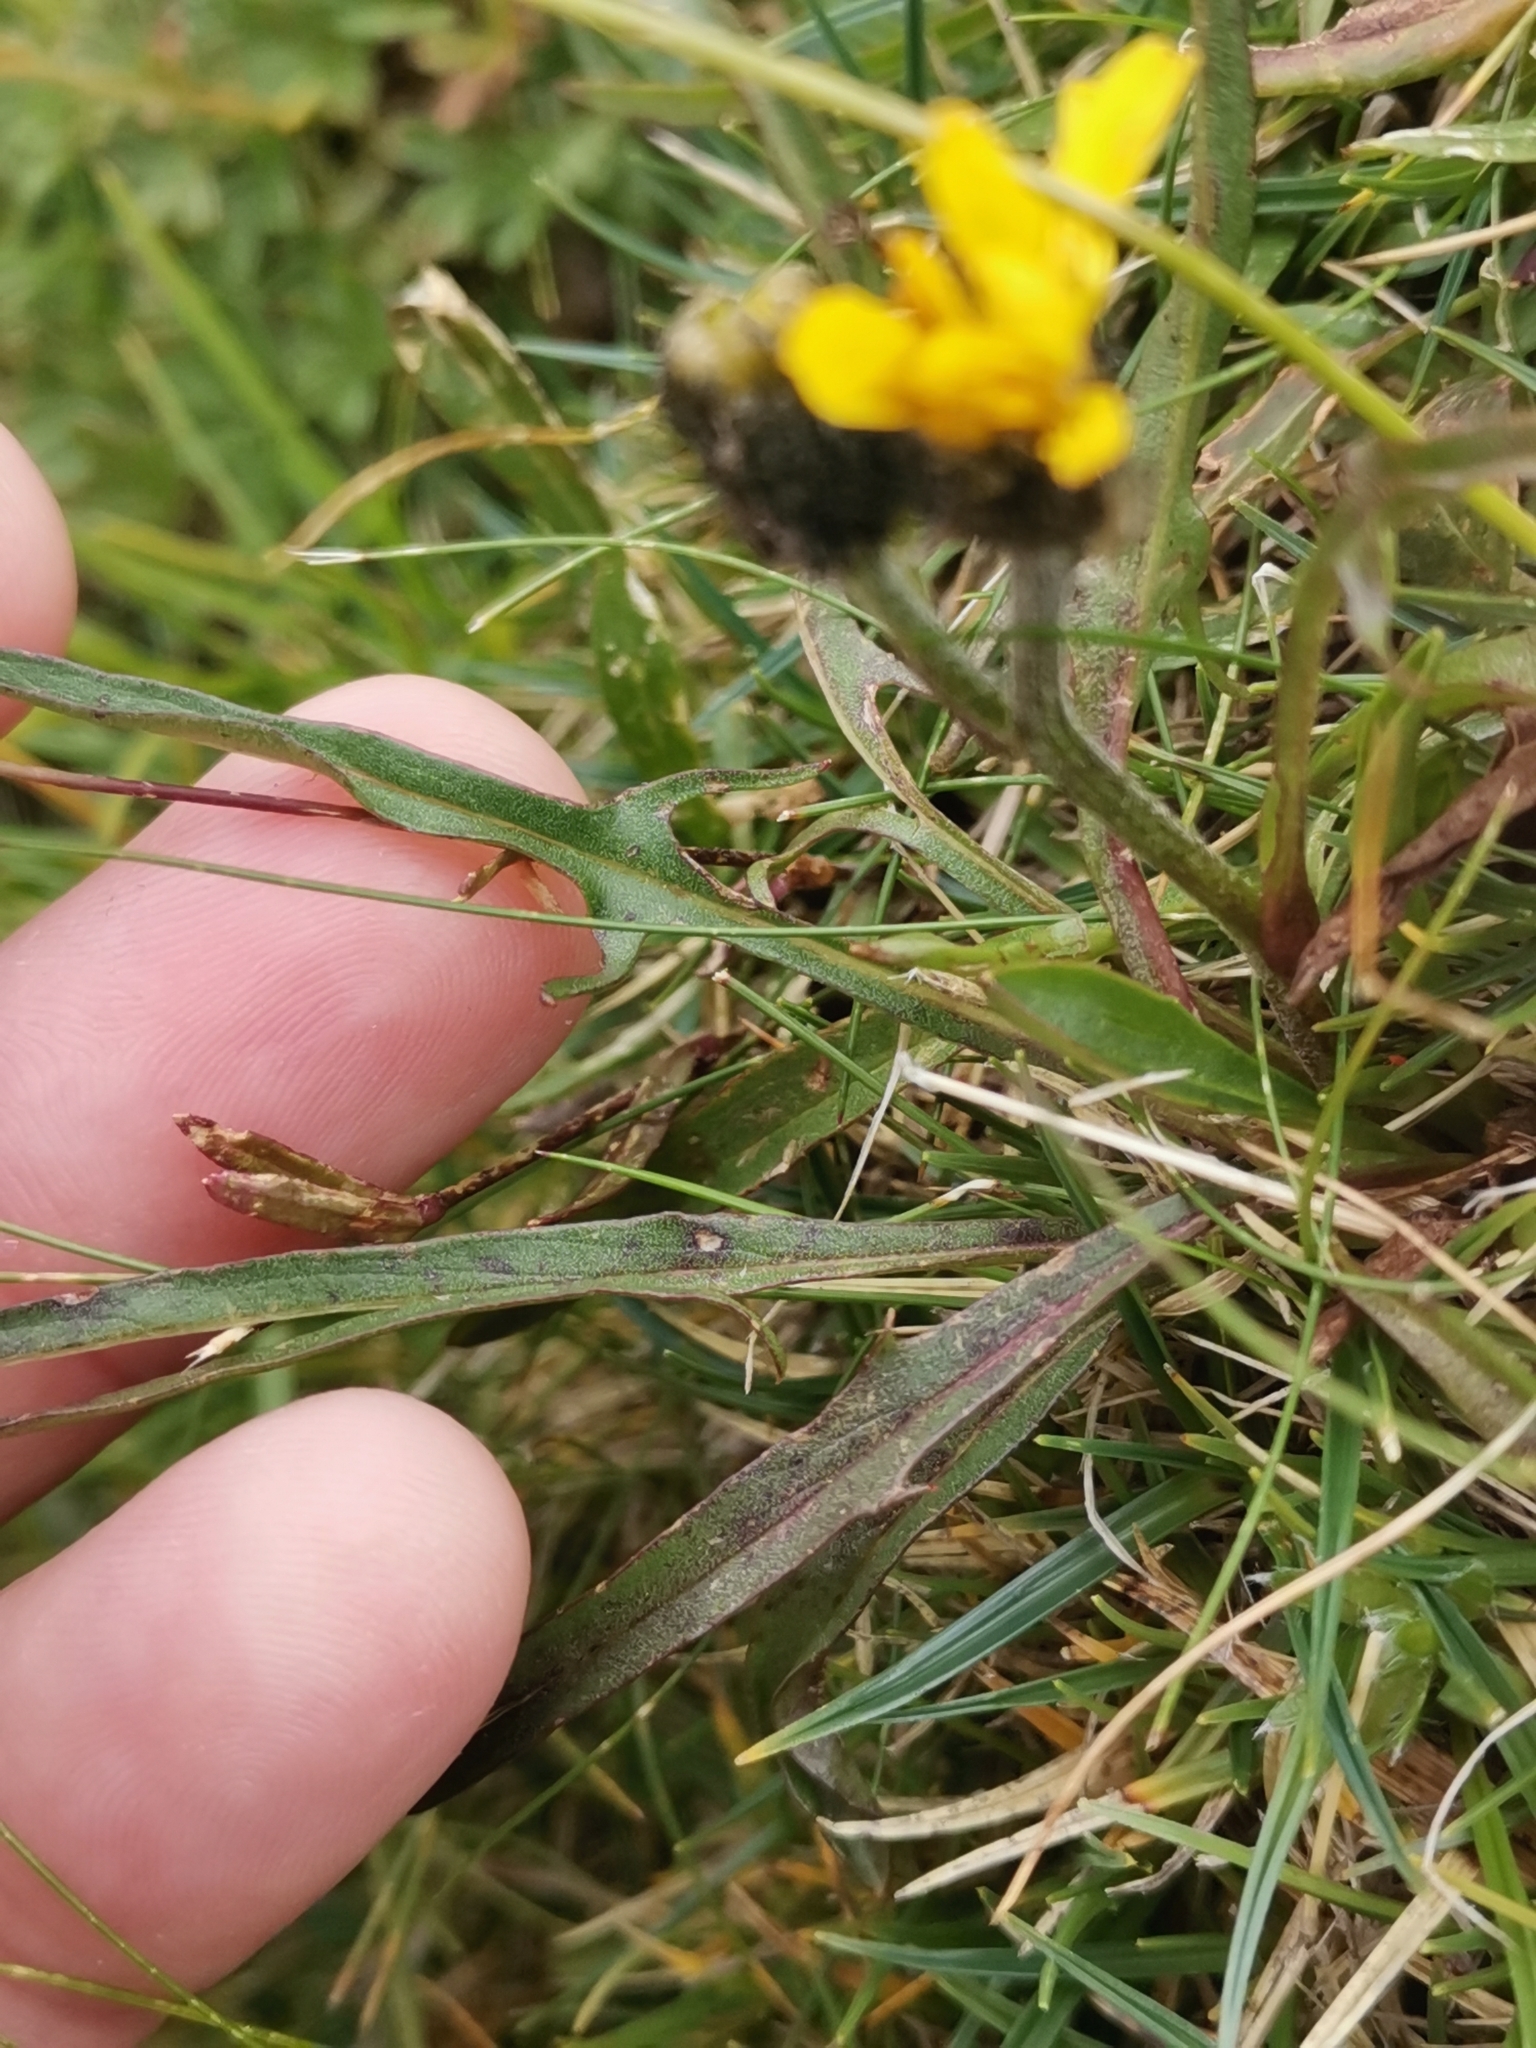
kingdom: Plantae
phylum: Tracheophyta
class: Magnoliopsida
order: Asterales
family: Asteraceae
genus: Crepis
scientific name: Crepis jacquinii
